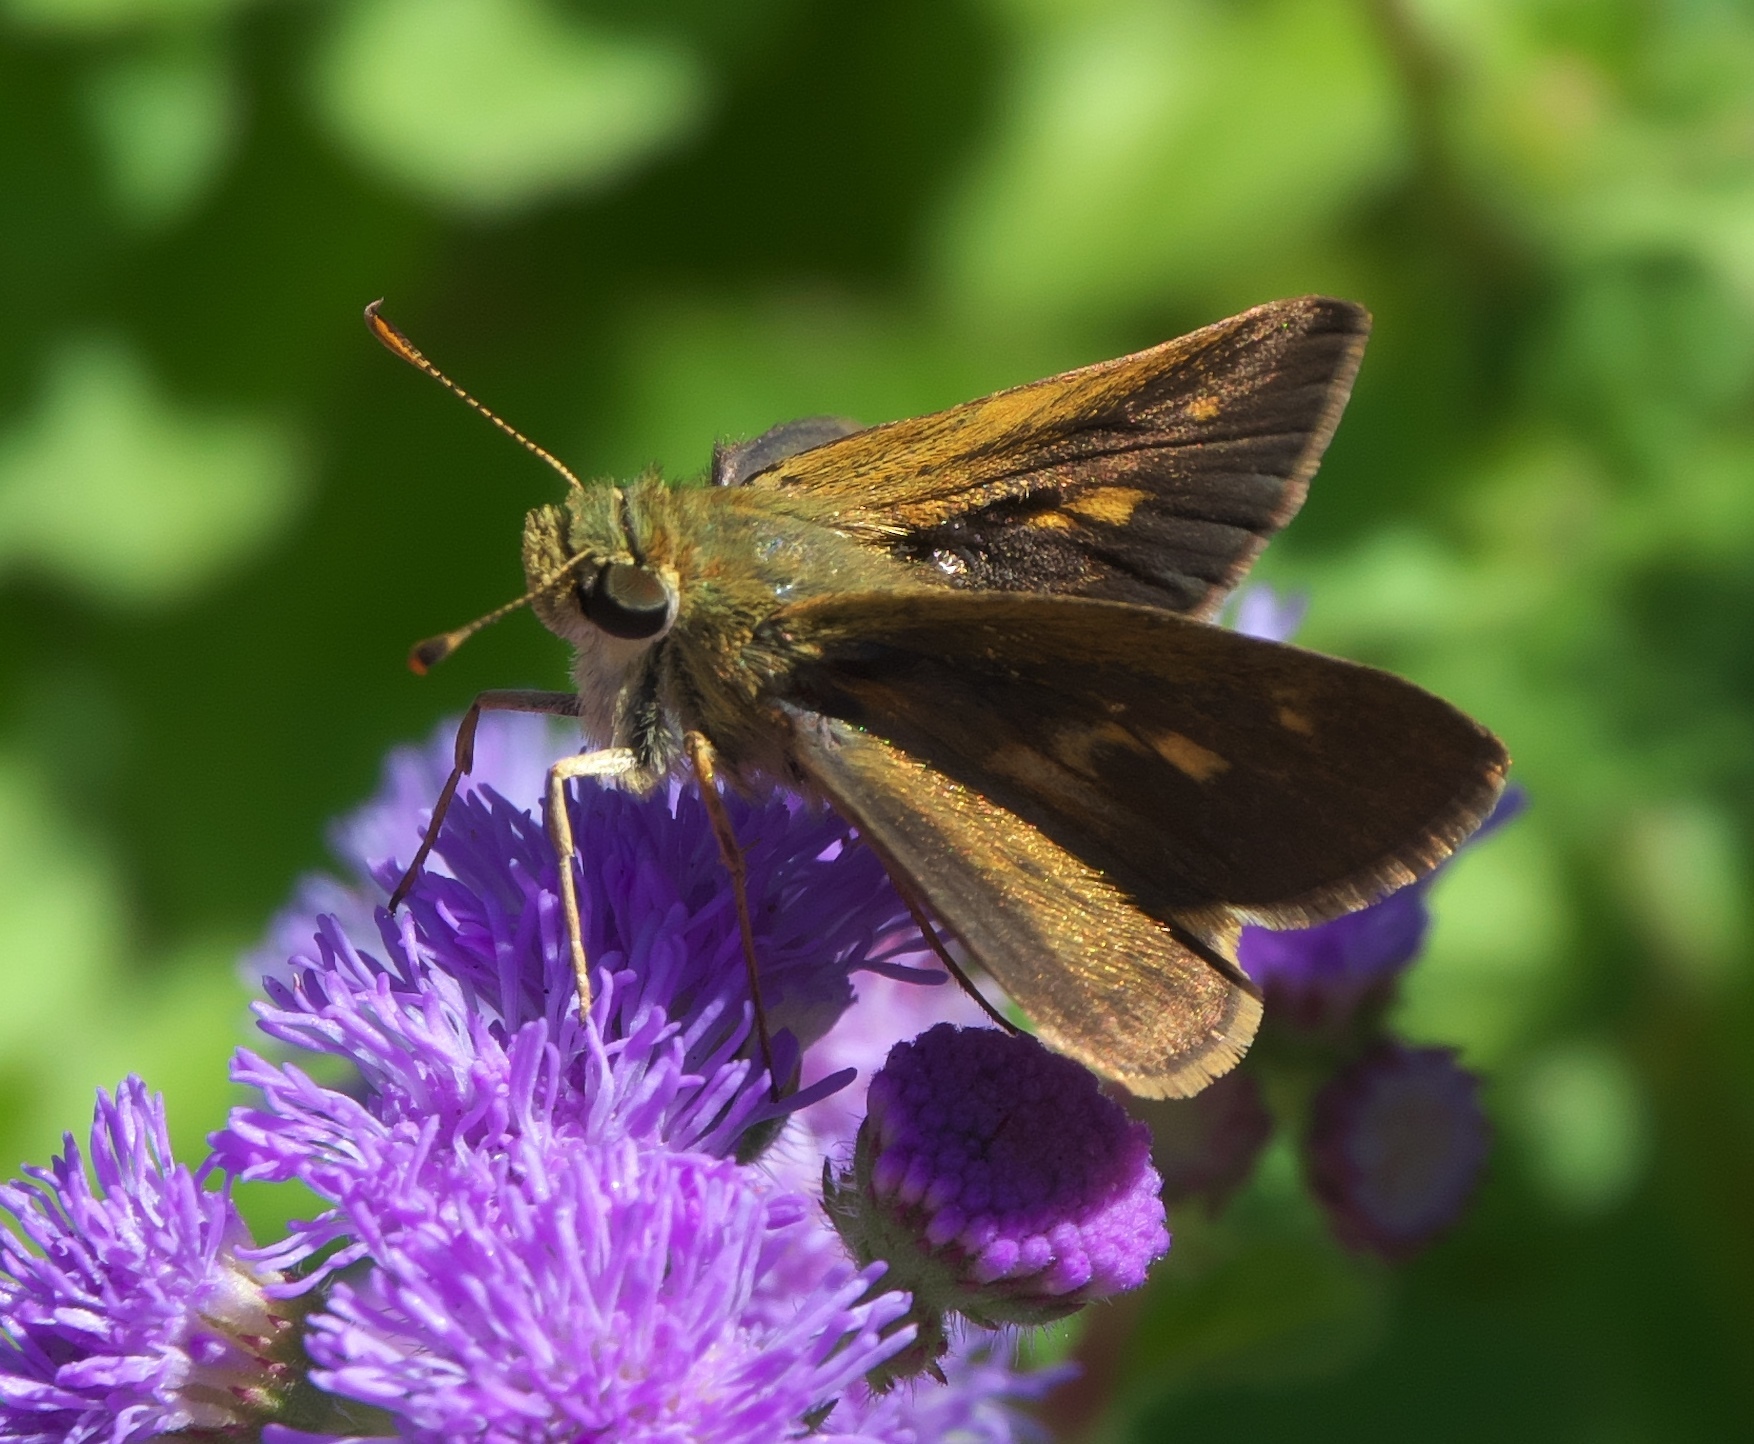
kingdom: Animalia
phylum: Arthropoda
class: Insecta
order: Lepidoptera
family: Hesperiidae
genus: Polites
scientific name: Polites themistocles
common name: Tawny-edged skipper
